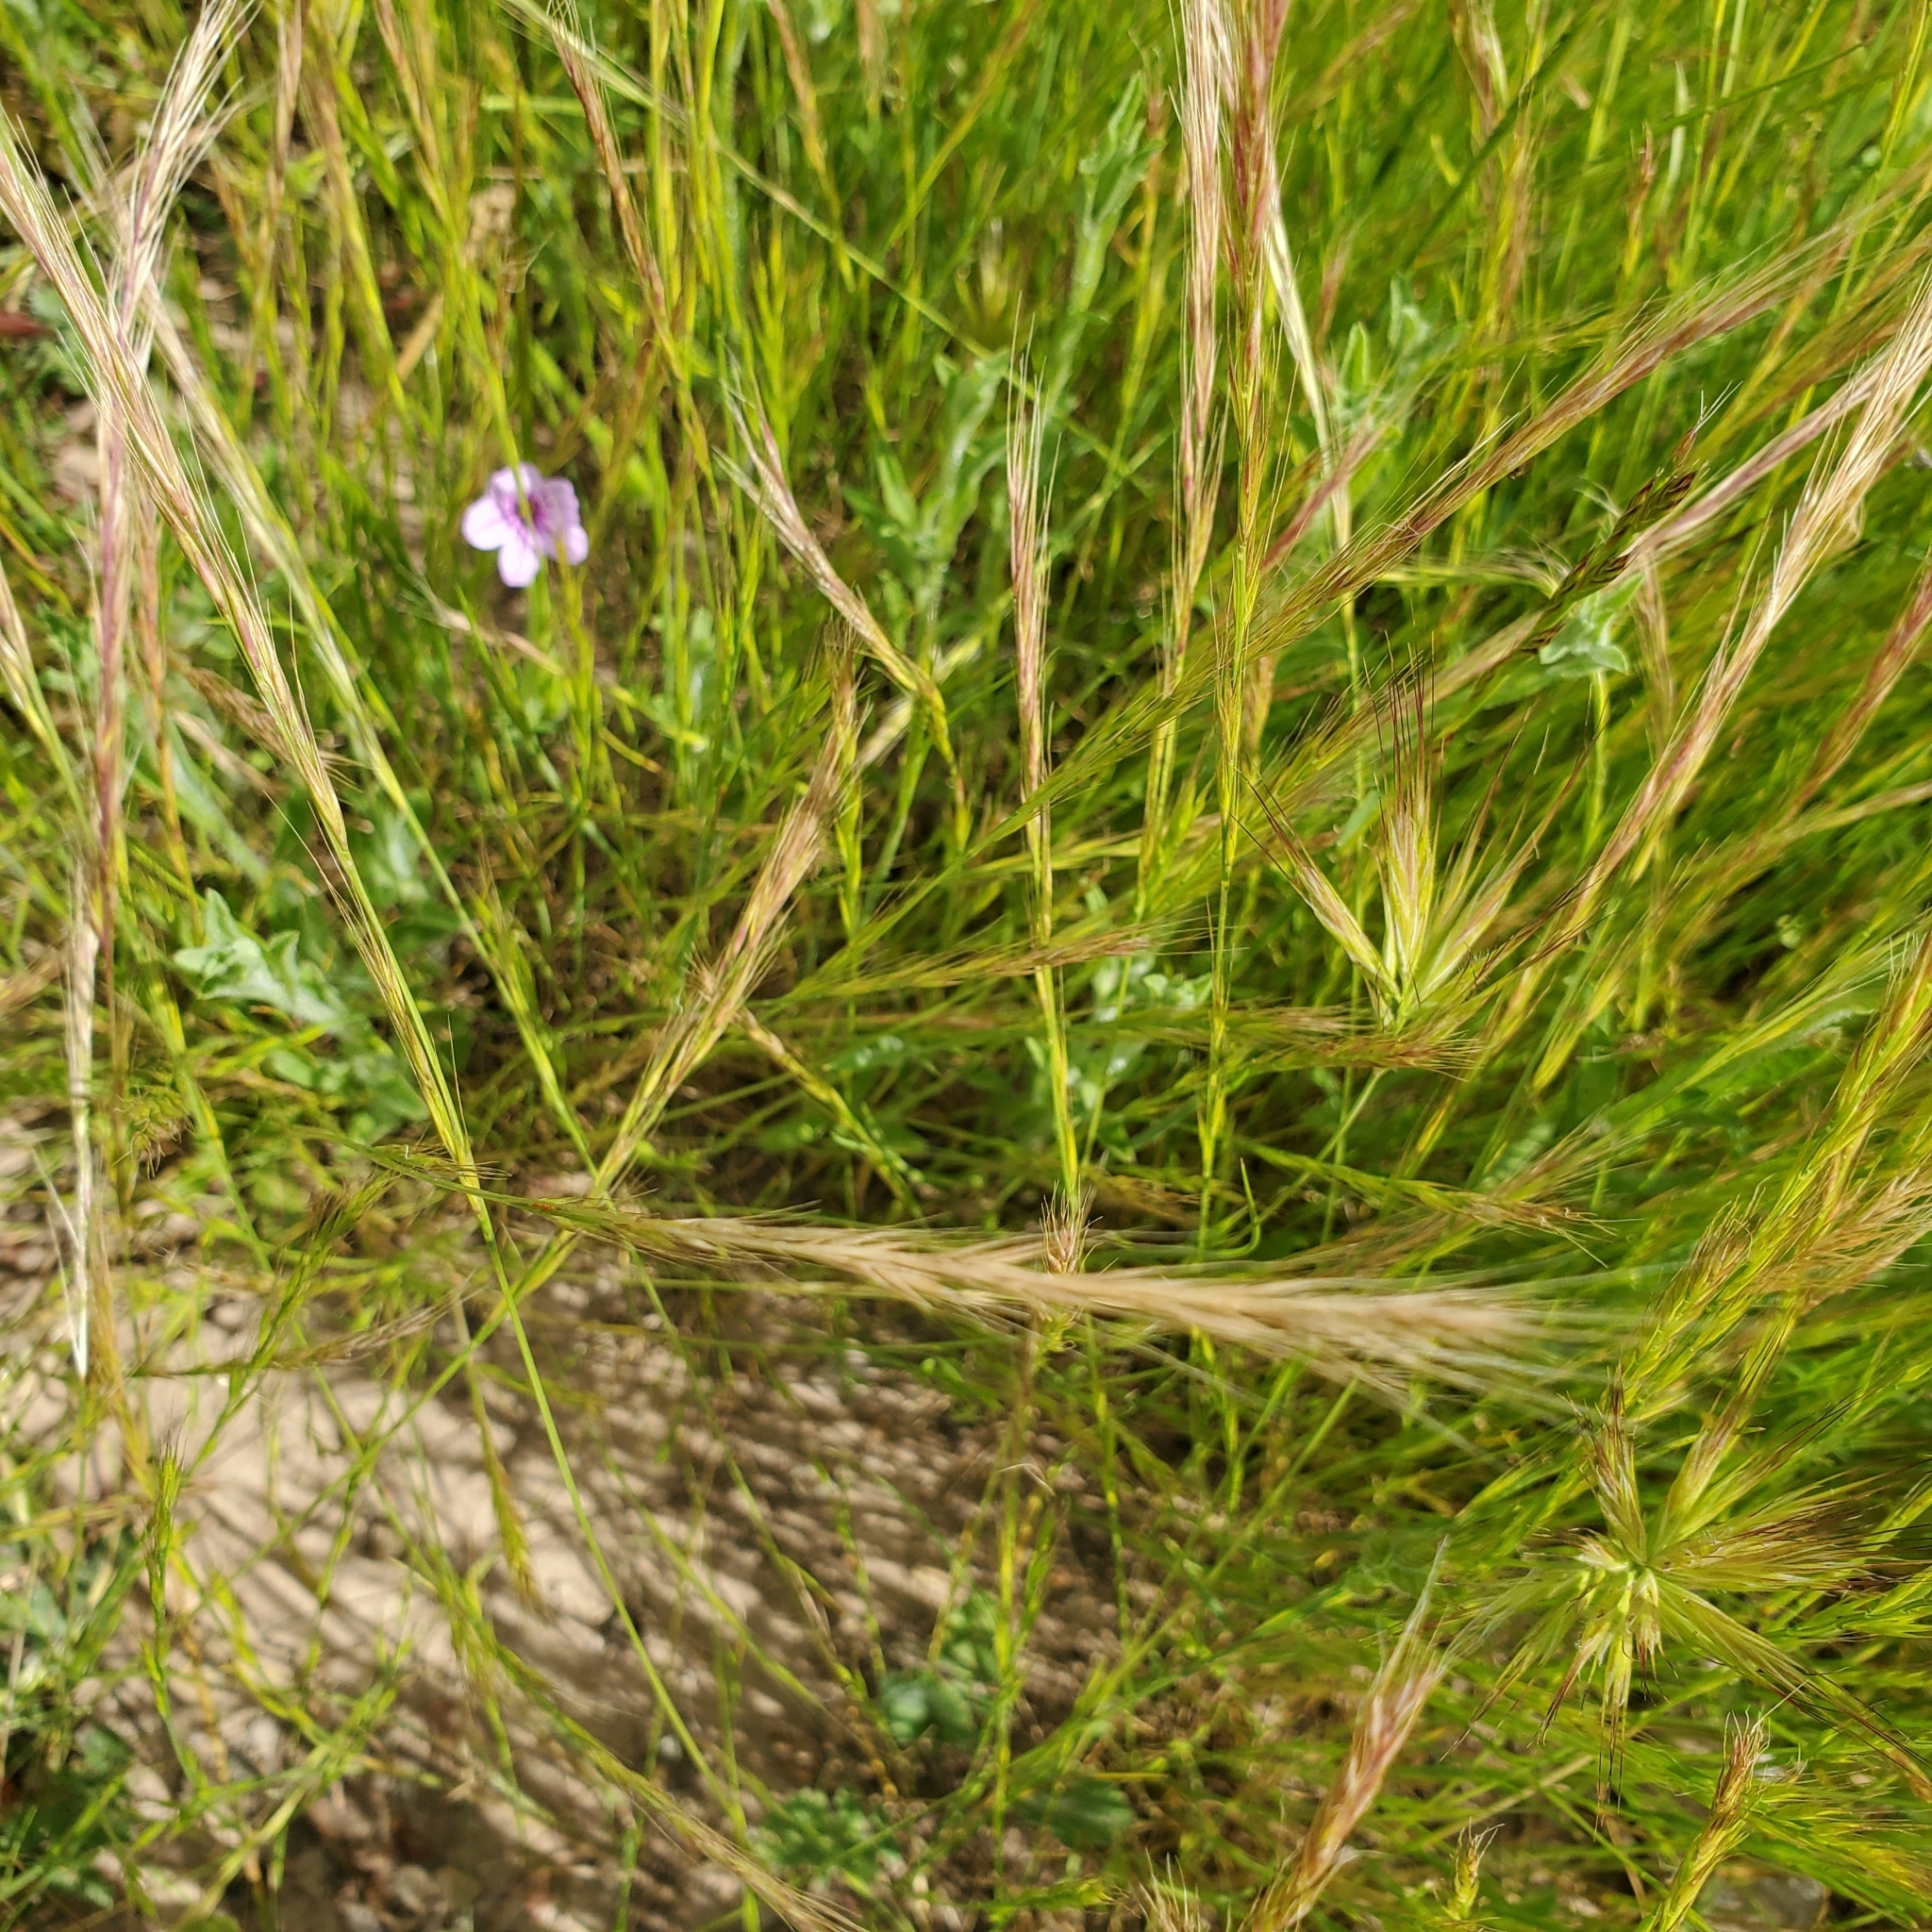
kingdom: Plantae
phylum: Tracheophyta
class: Liliopsida
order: Poales
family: Poaceae
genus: Festuca
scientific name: Festuca myuros
